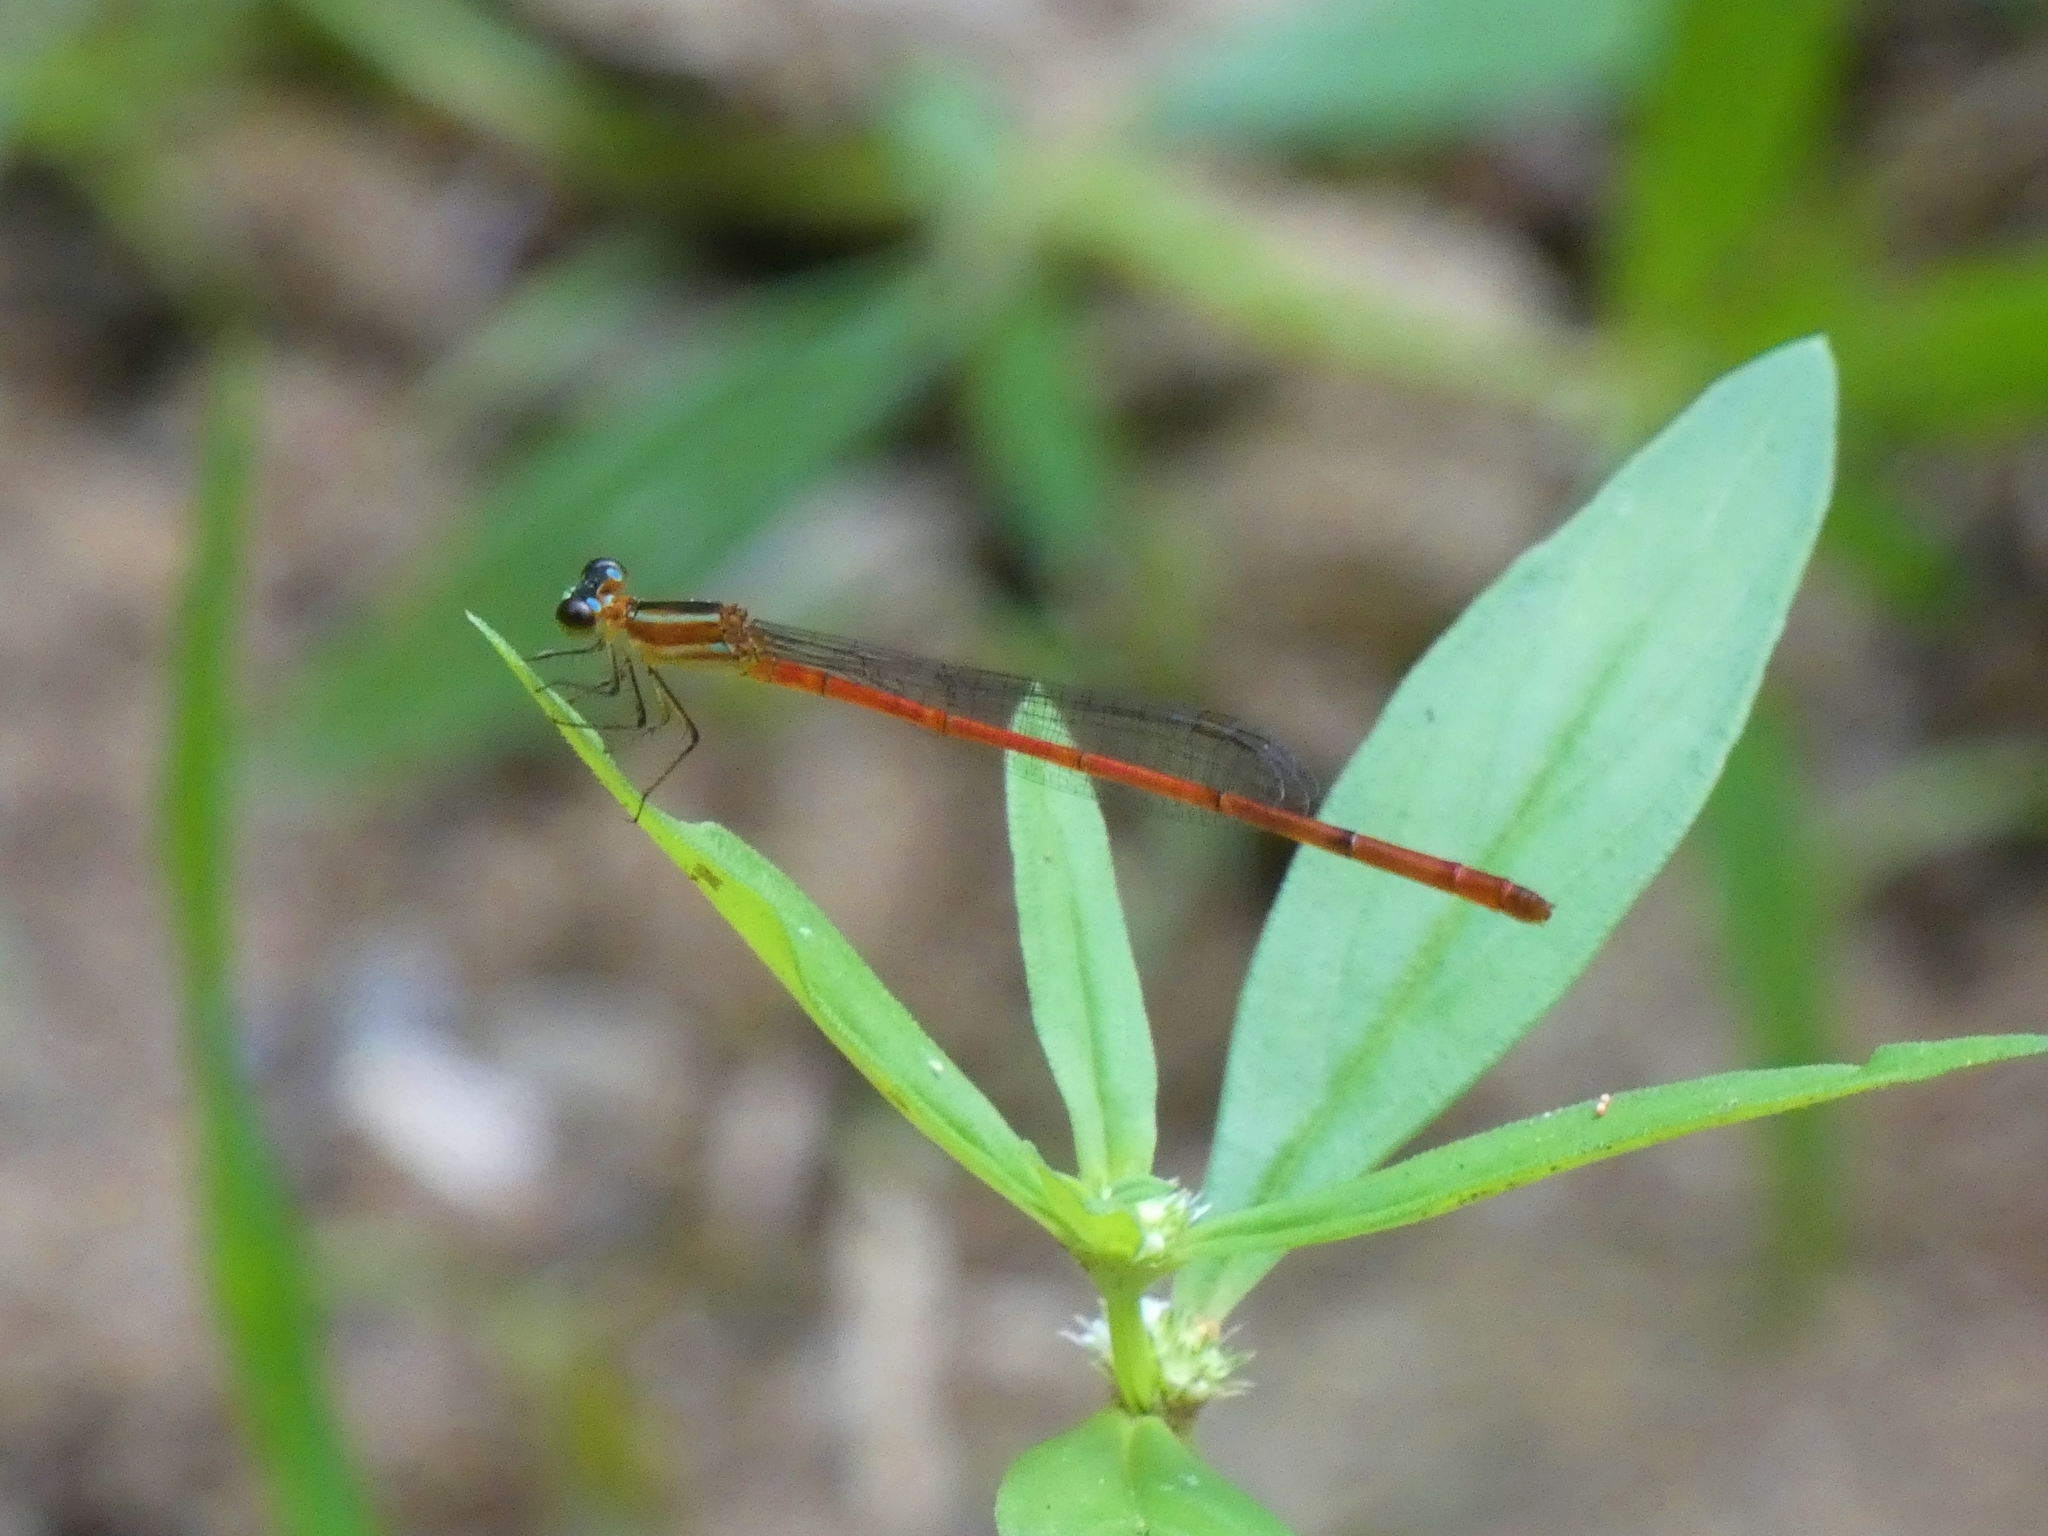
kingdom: Animalia
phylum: Arthropoda
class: Insecta
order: Odonata
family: Coenagrionidae
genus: Argiocnemis
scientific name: Argiocnemis rubescens
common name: Red-tipped shadefly
